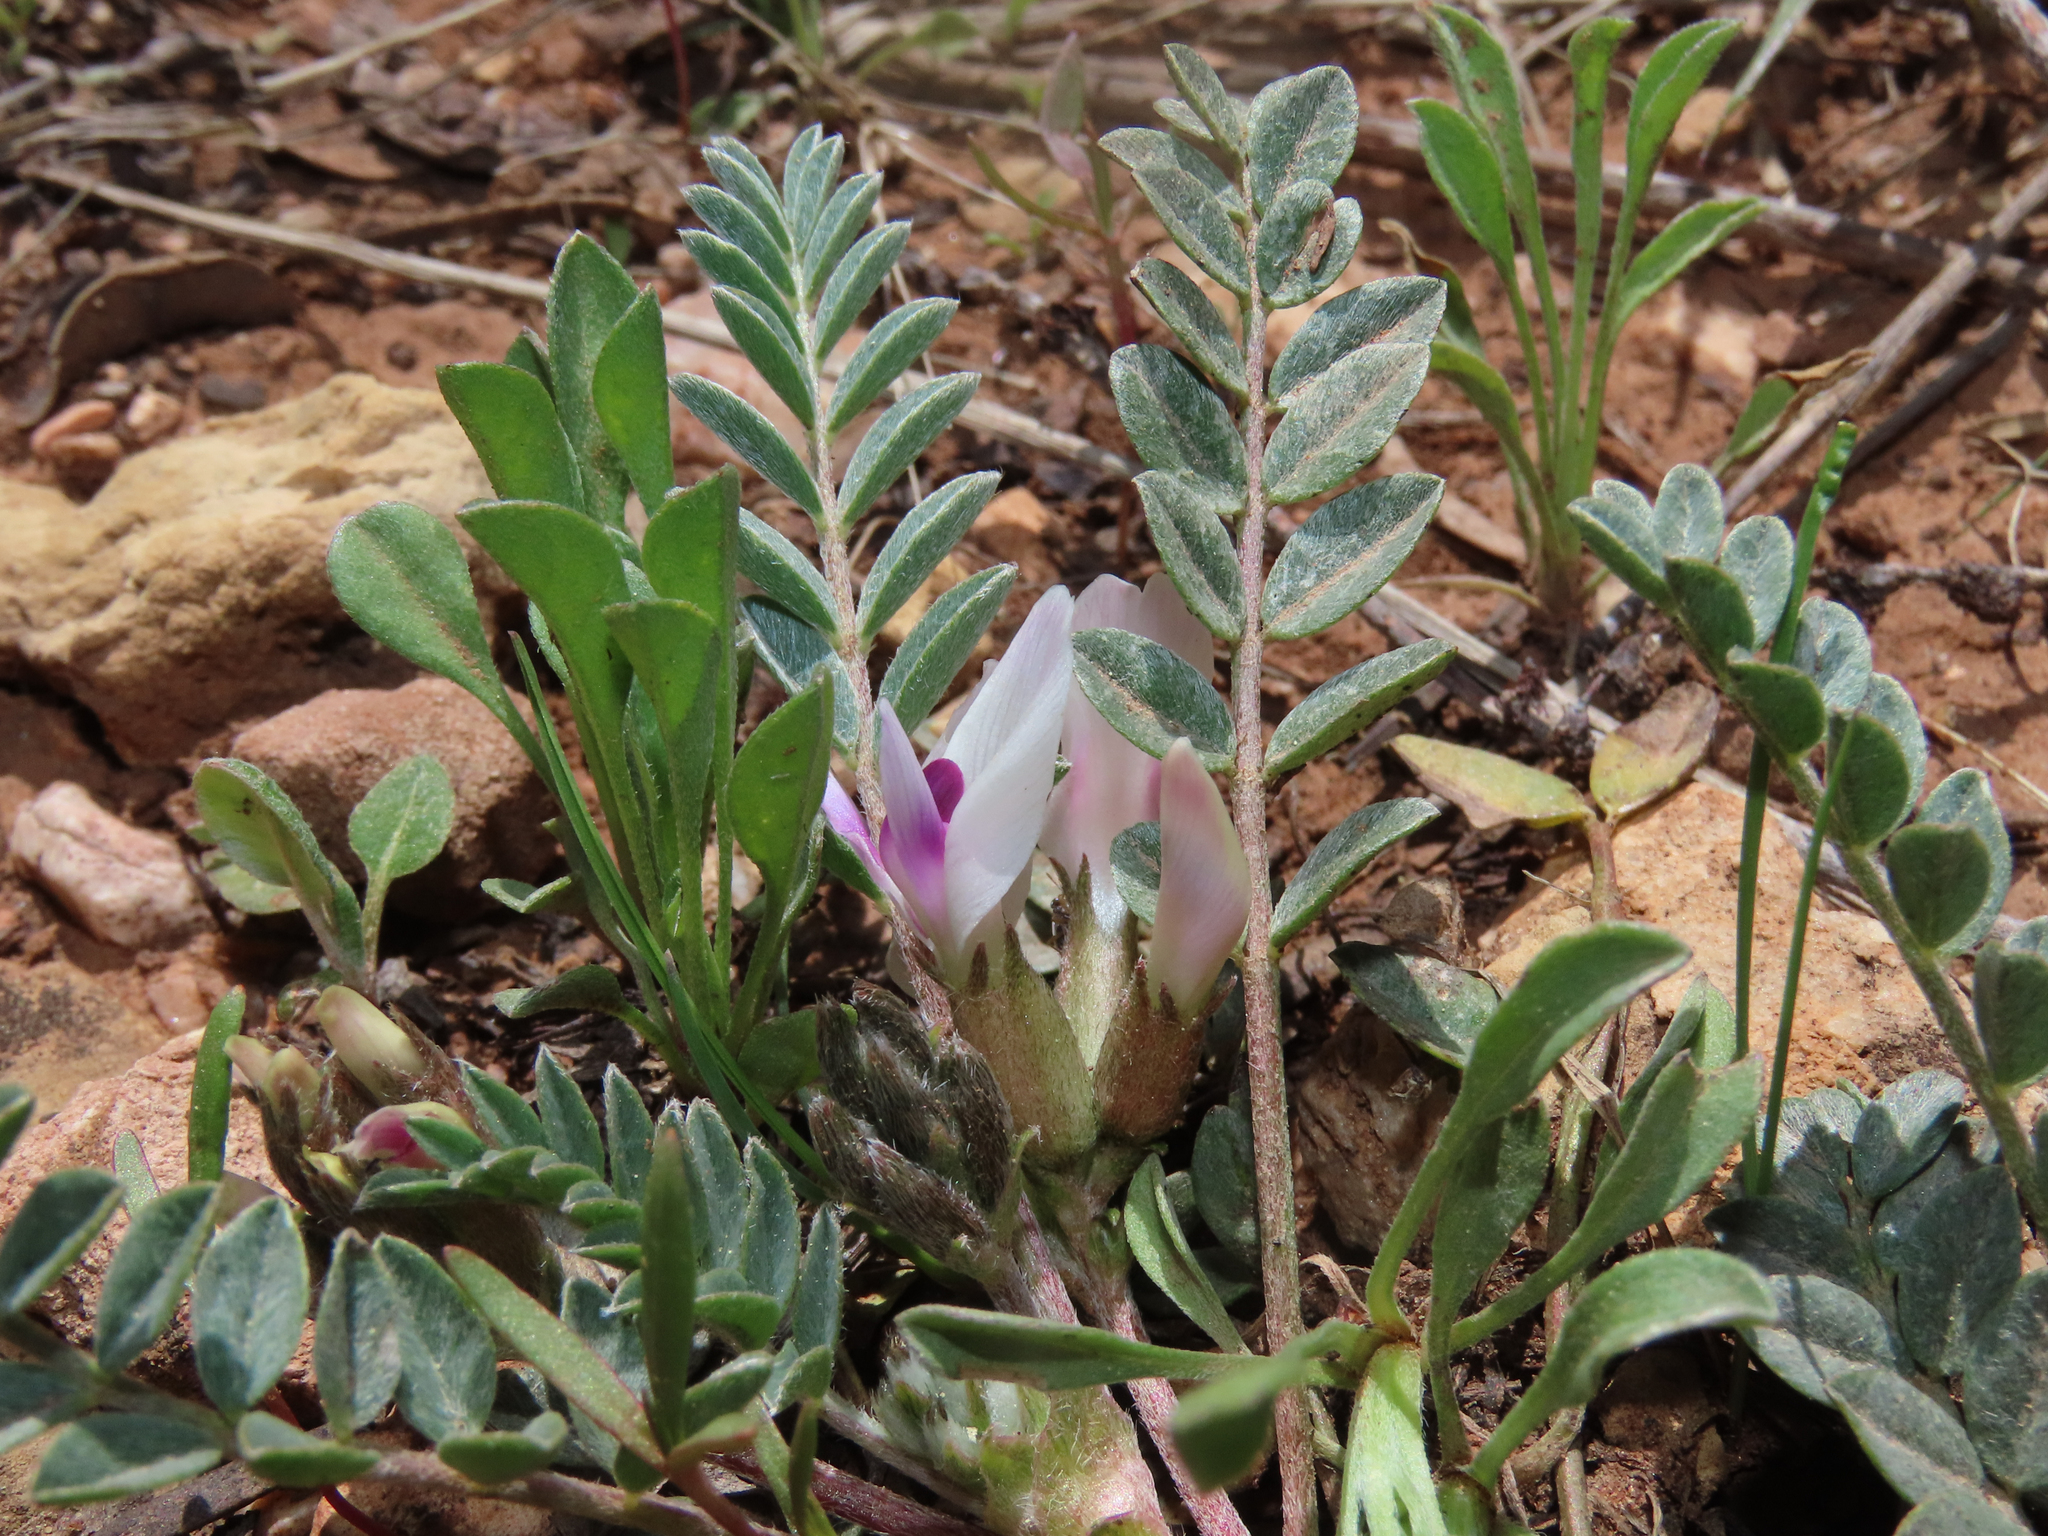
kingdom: Plantae
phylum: Tracheophyta
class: Magnoliopsida
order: Fabales
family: Fabaceae
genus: Astragalus
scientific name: Astragalus castaneiformis
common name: Chestnut milk-vetch
